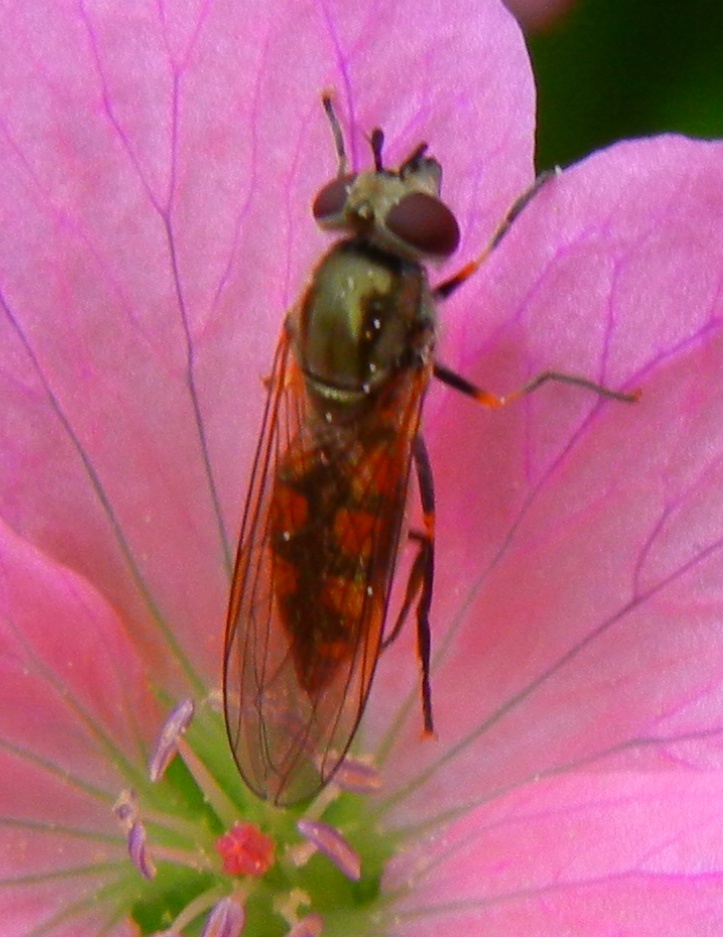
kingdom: Animalia
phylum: Arthropoda
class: Insecta
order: Diptera
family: Syrphidae
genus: Platycheirus
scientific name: Platycheirus manicatus
